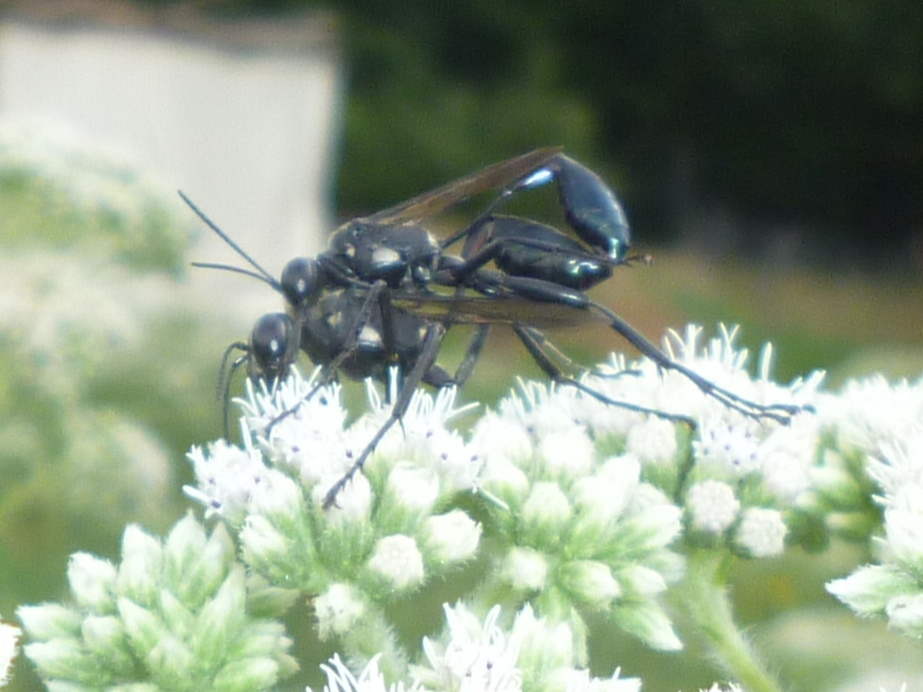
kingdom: Animalia
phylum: Arthropoda
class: Insecta
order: Hymenoptera
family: Sphecidae
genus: Eremnophila
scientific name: Eremnophila aureonotata
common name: Gold-marked thread-waisted wasp
